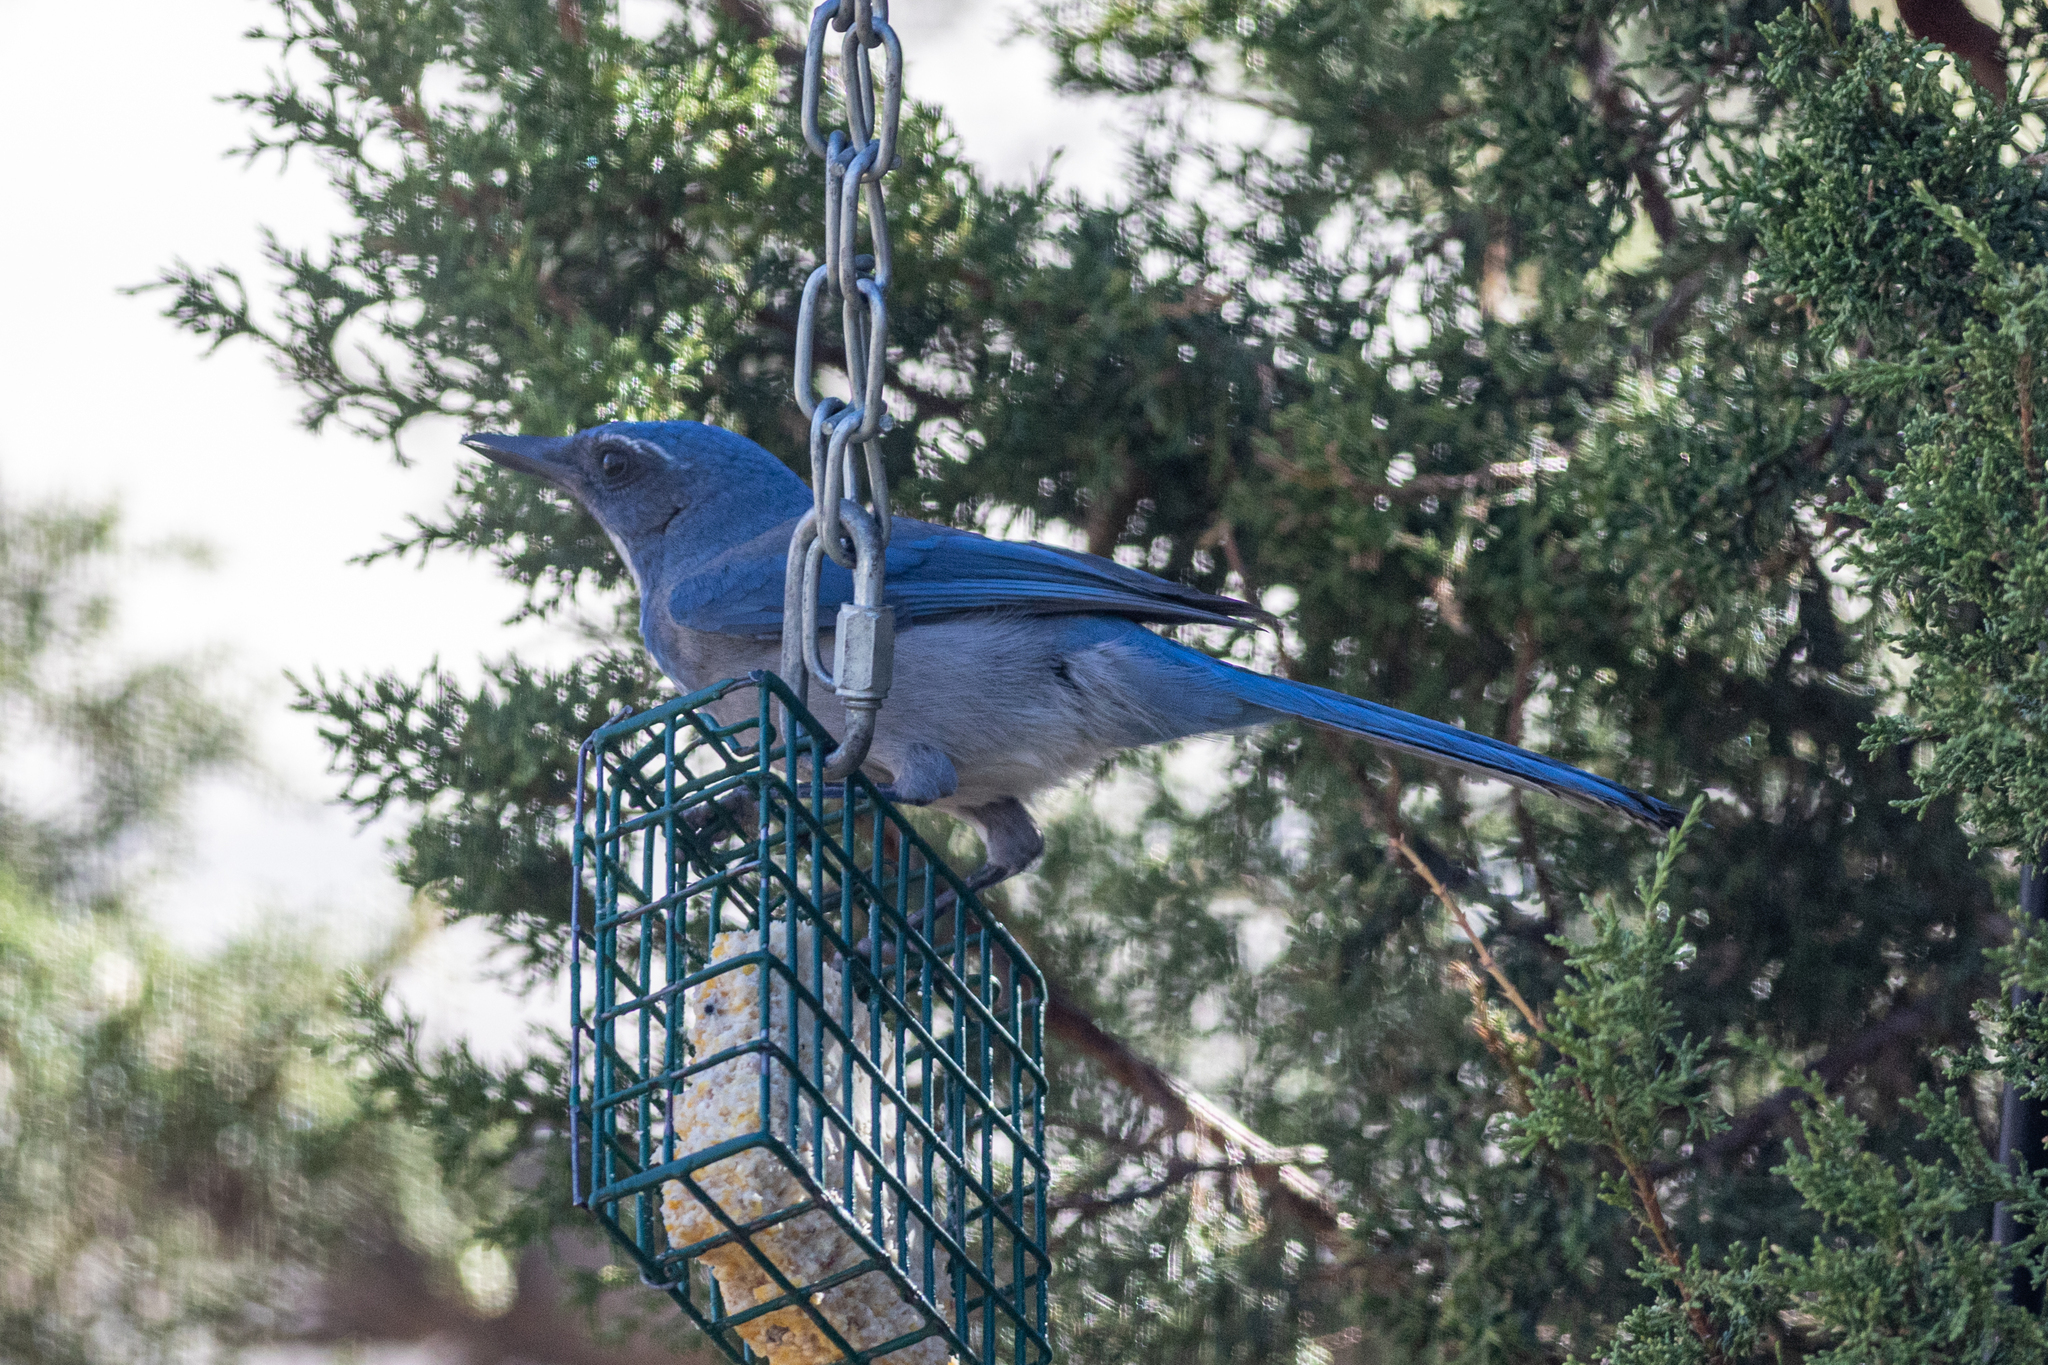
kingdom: Animalia
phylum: Chordata
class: Aves
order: Passeriformes
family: Corvidae
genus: Aphelocoma
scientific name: Aphelocoma woodhouseii
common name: Woodhouse's scrub-jay
